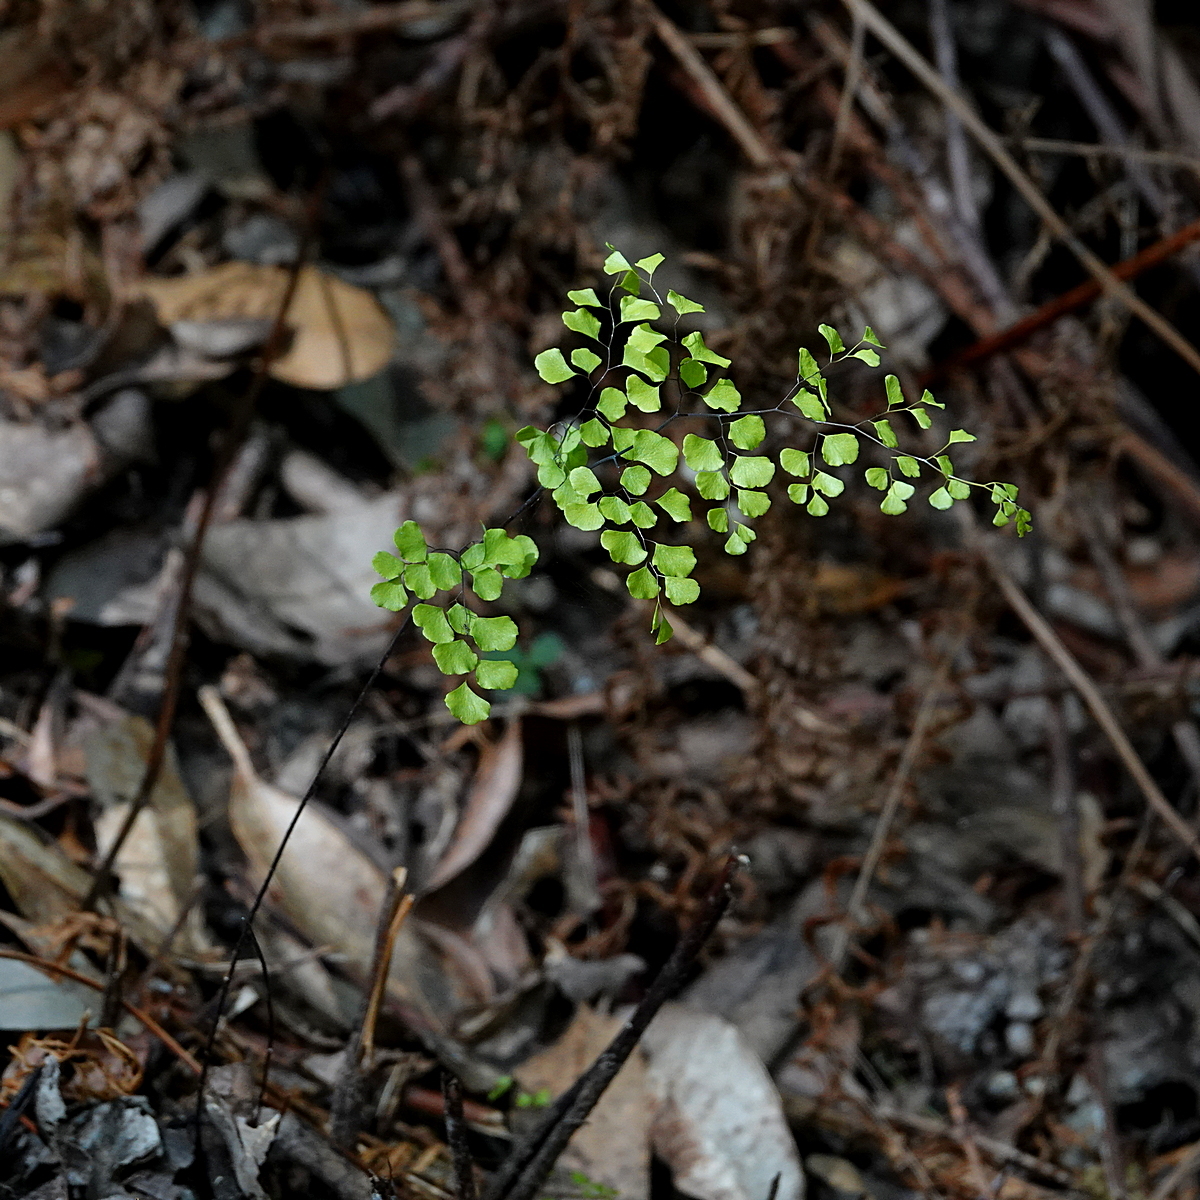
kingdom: Plantae
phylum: Tracheophyta
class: Polypodiopsida
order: Polypodiales
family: Pteridaceae
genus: Adiantum
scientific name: Adiantum aethiopicum
